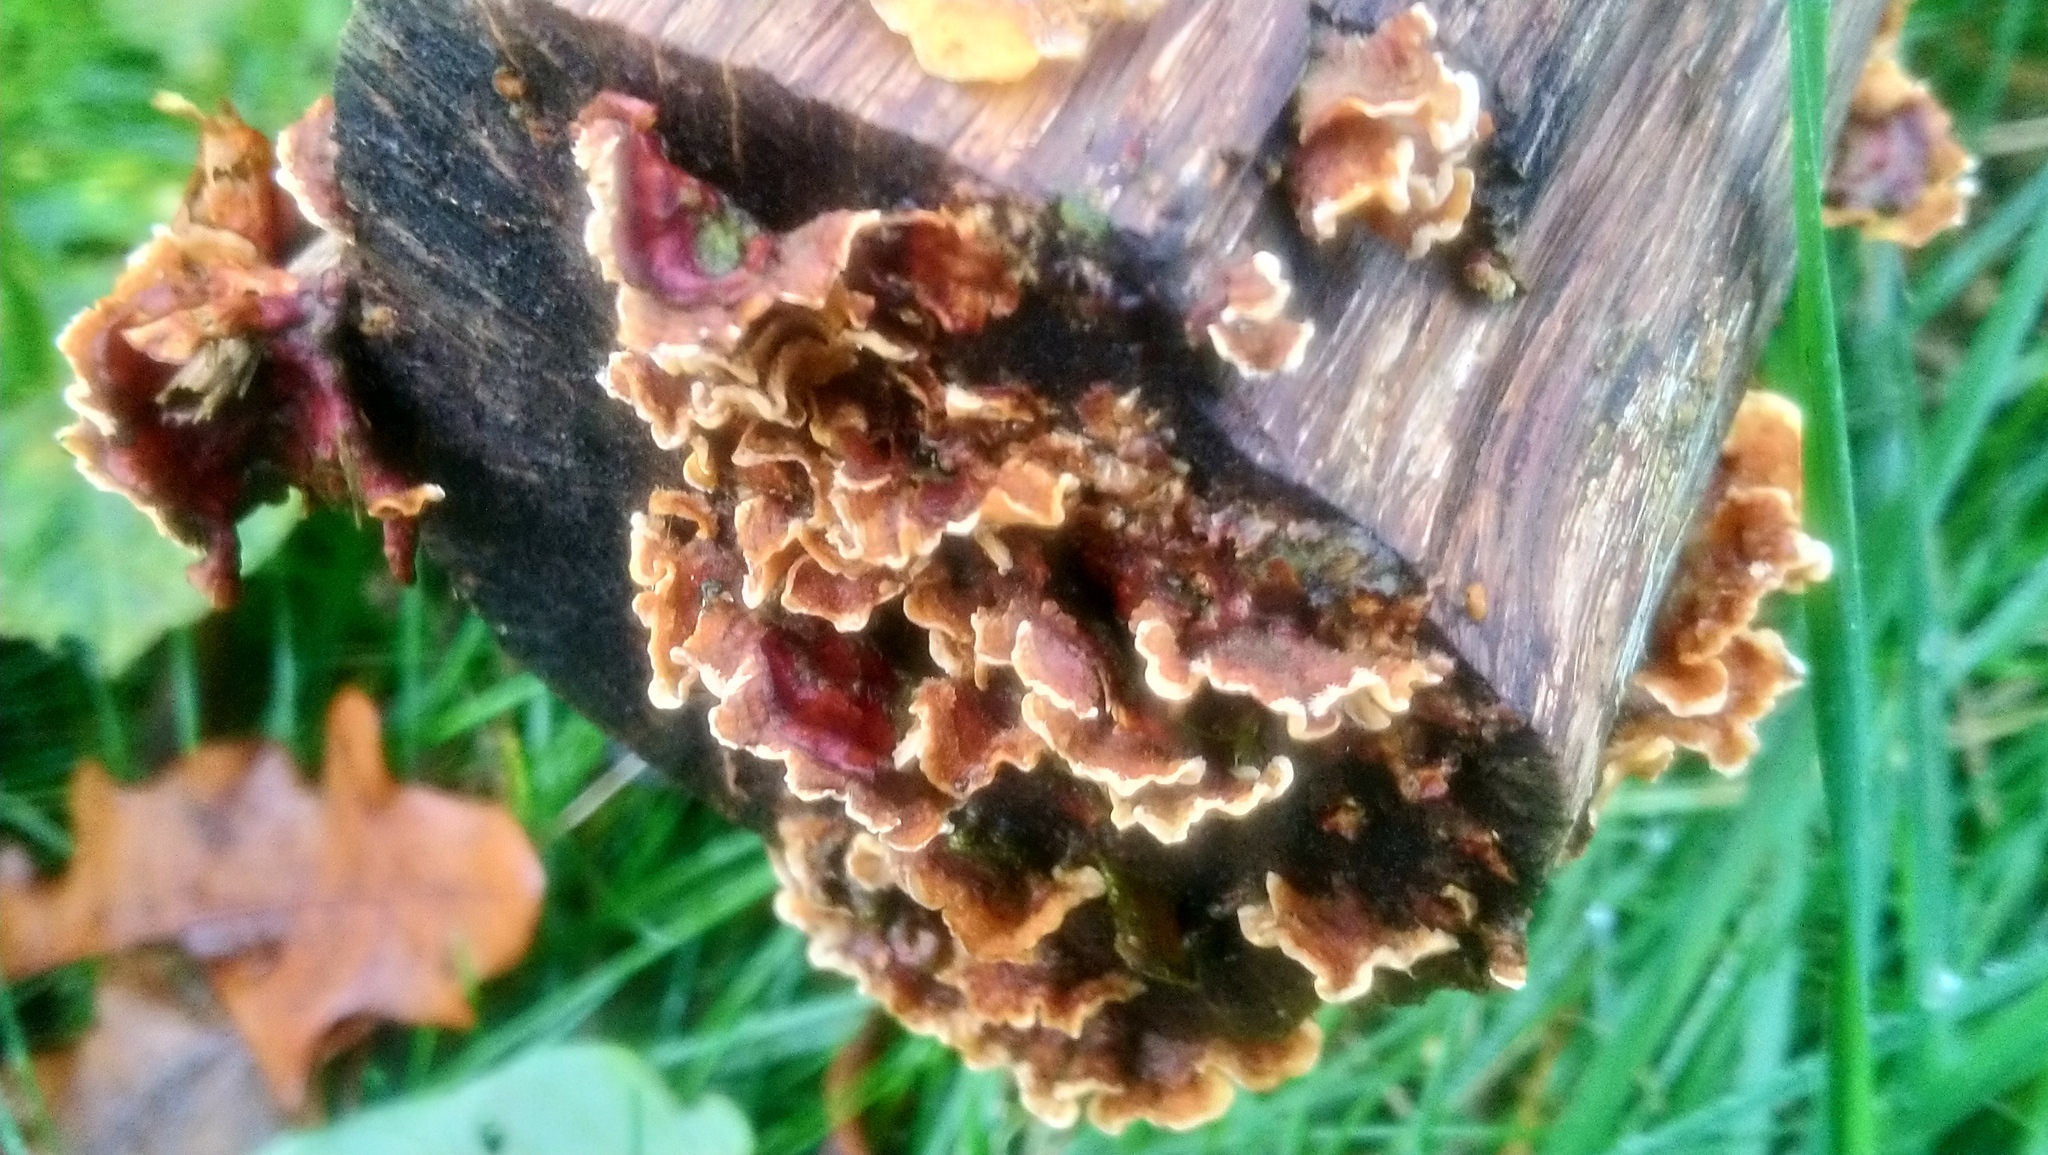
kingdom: Fungi
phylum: Basidiomycota
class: Agaricomycetes
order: Russulales
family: Stereaceae
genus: Stereum
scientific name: Stereum hirsutum
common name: Hairy curtain crust
